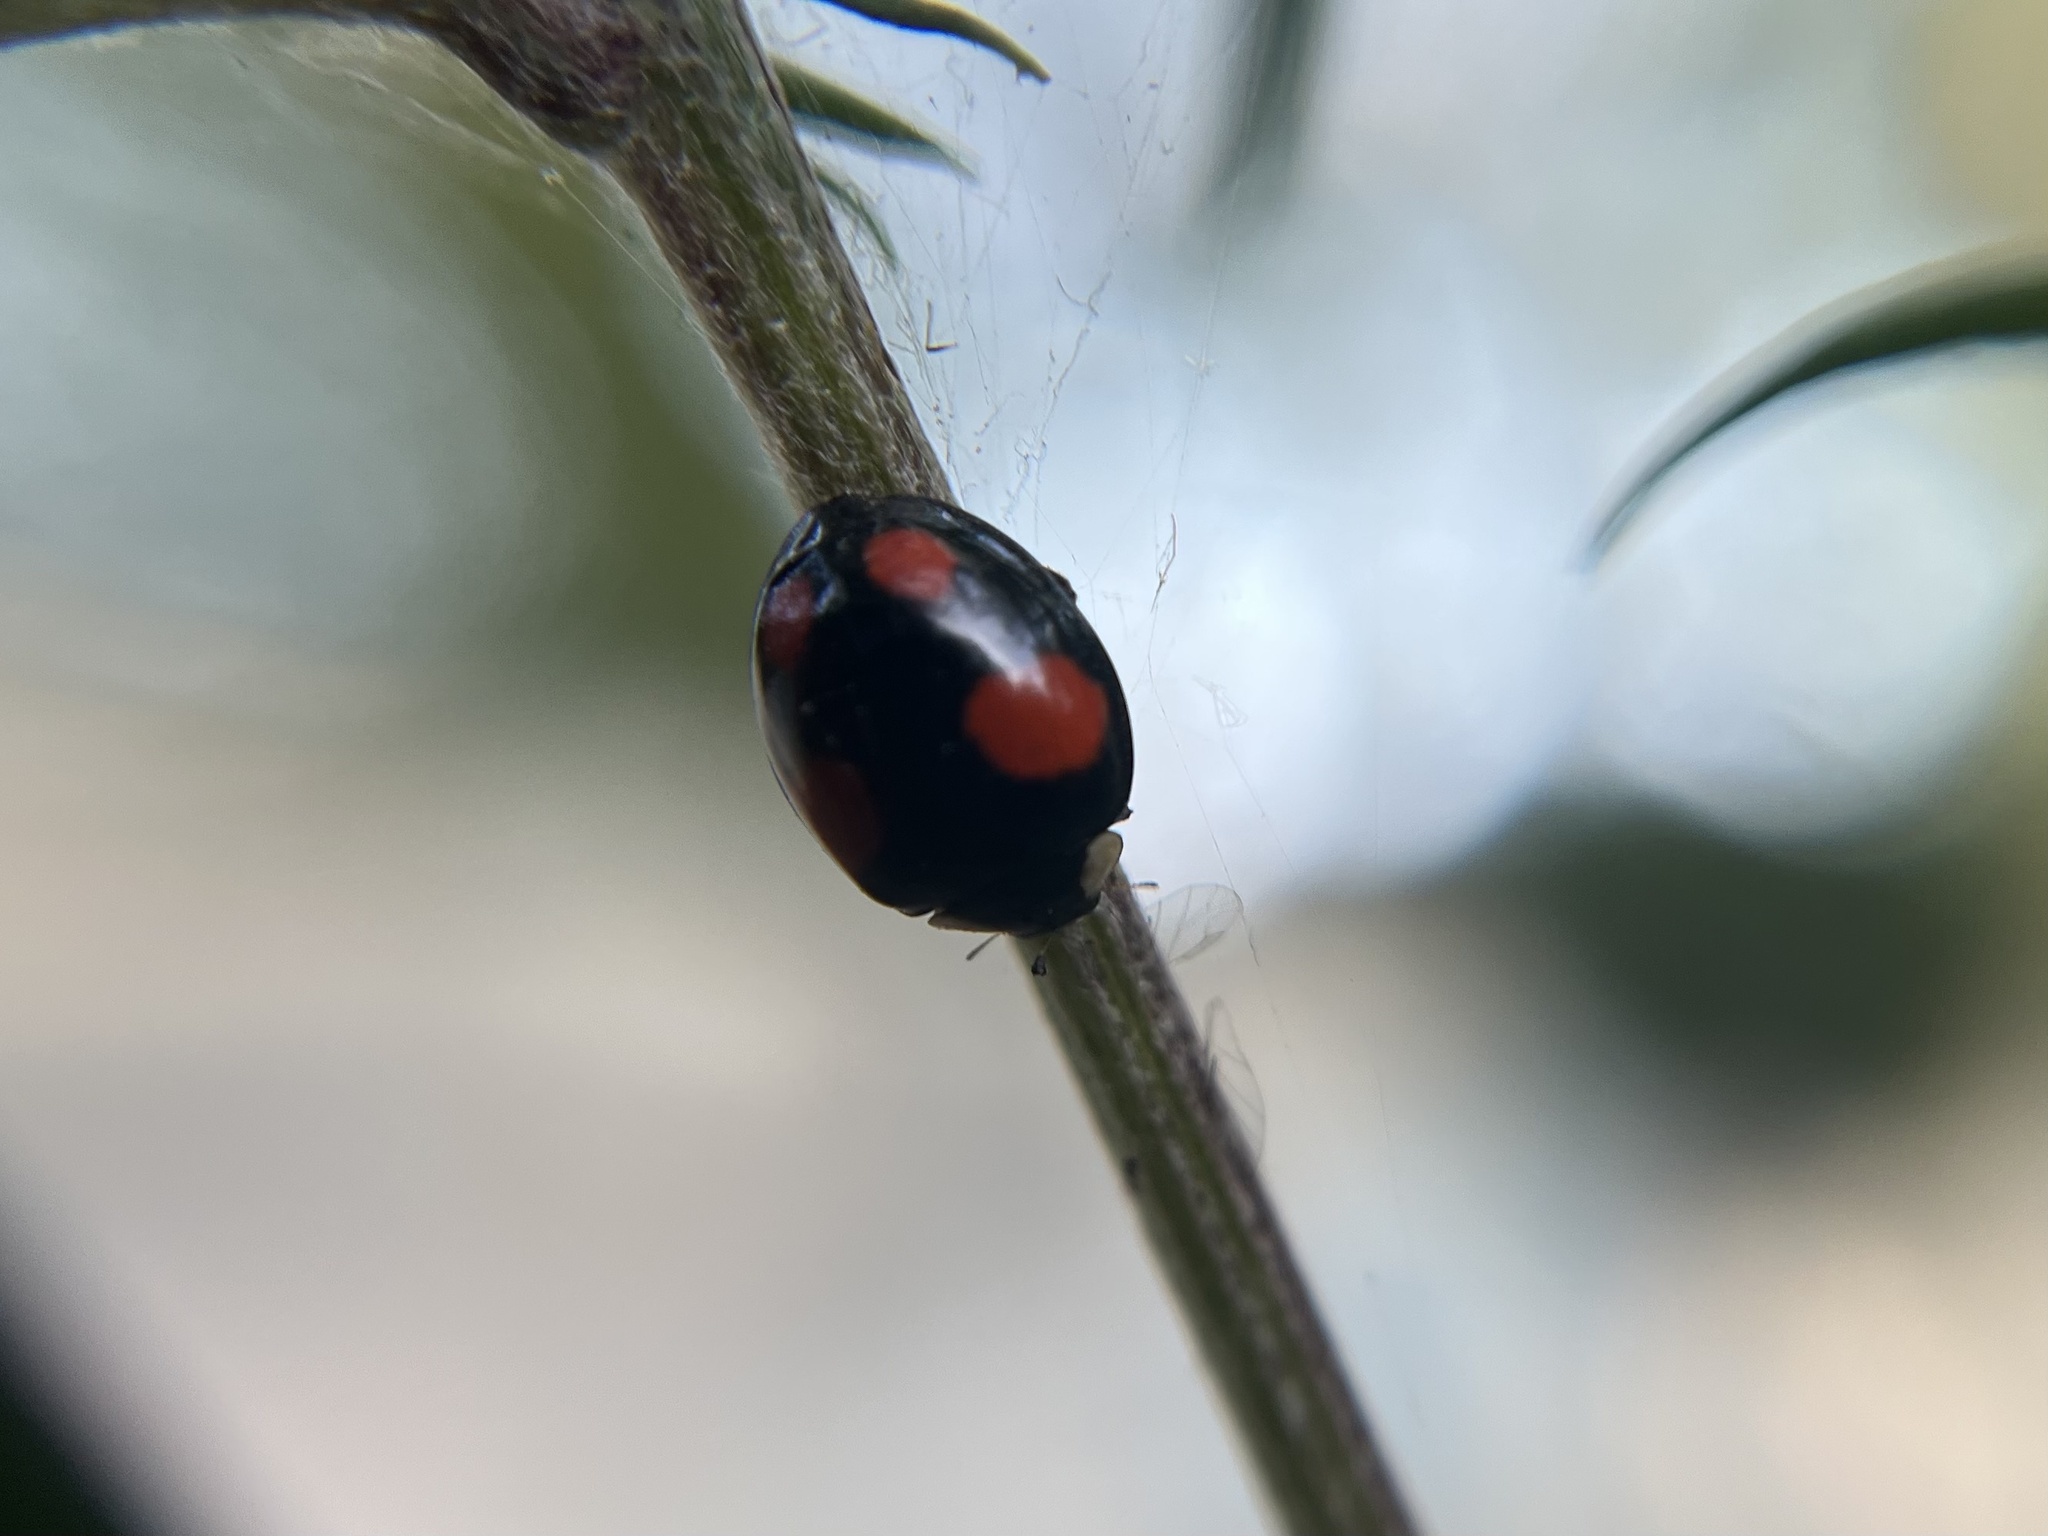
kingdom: Animalia
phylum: Arthropoda
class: Insecta
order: Coleoptera
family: Coccinellidae
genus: Harmonia
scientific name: Harmonia axyridis
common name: Harlequin ladybird
